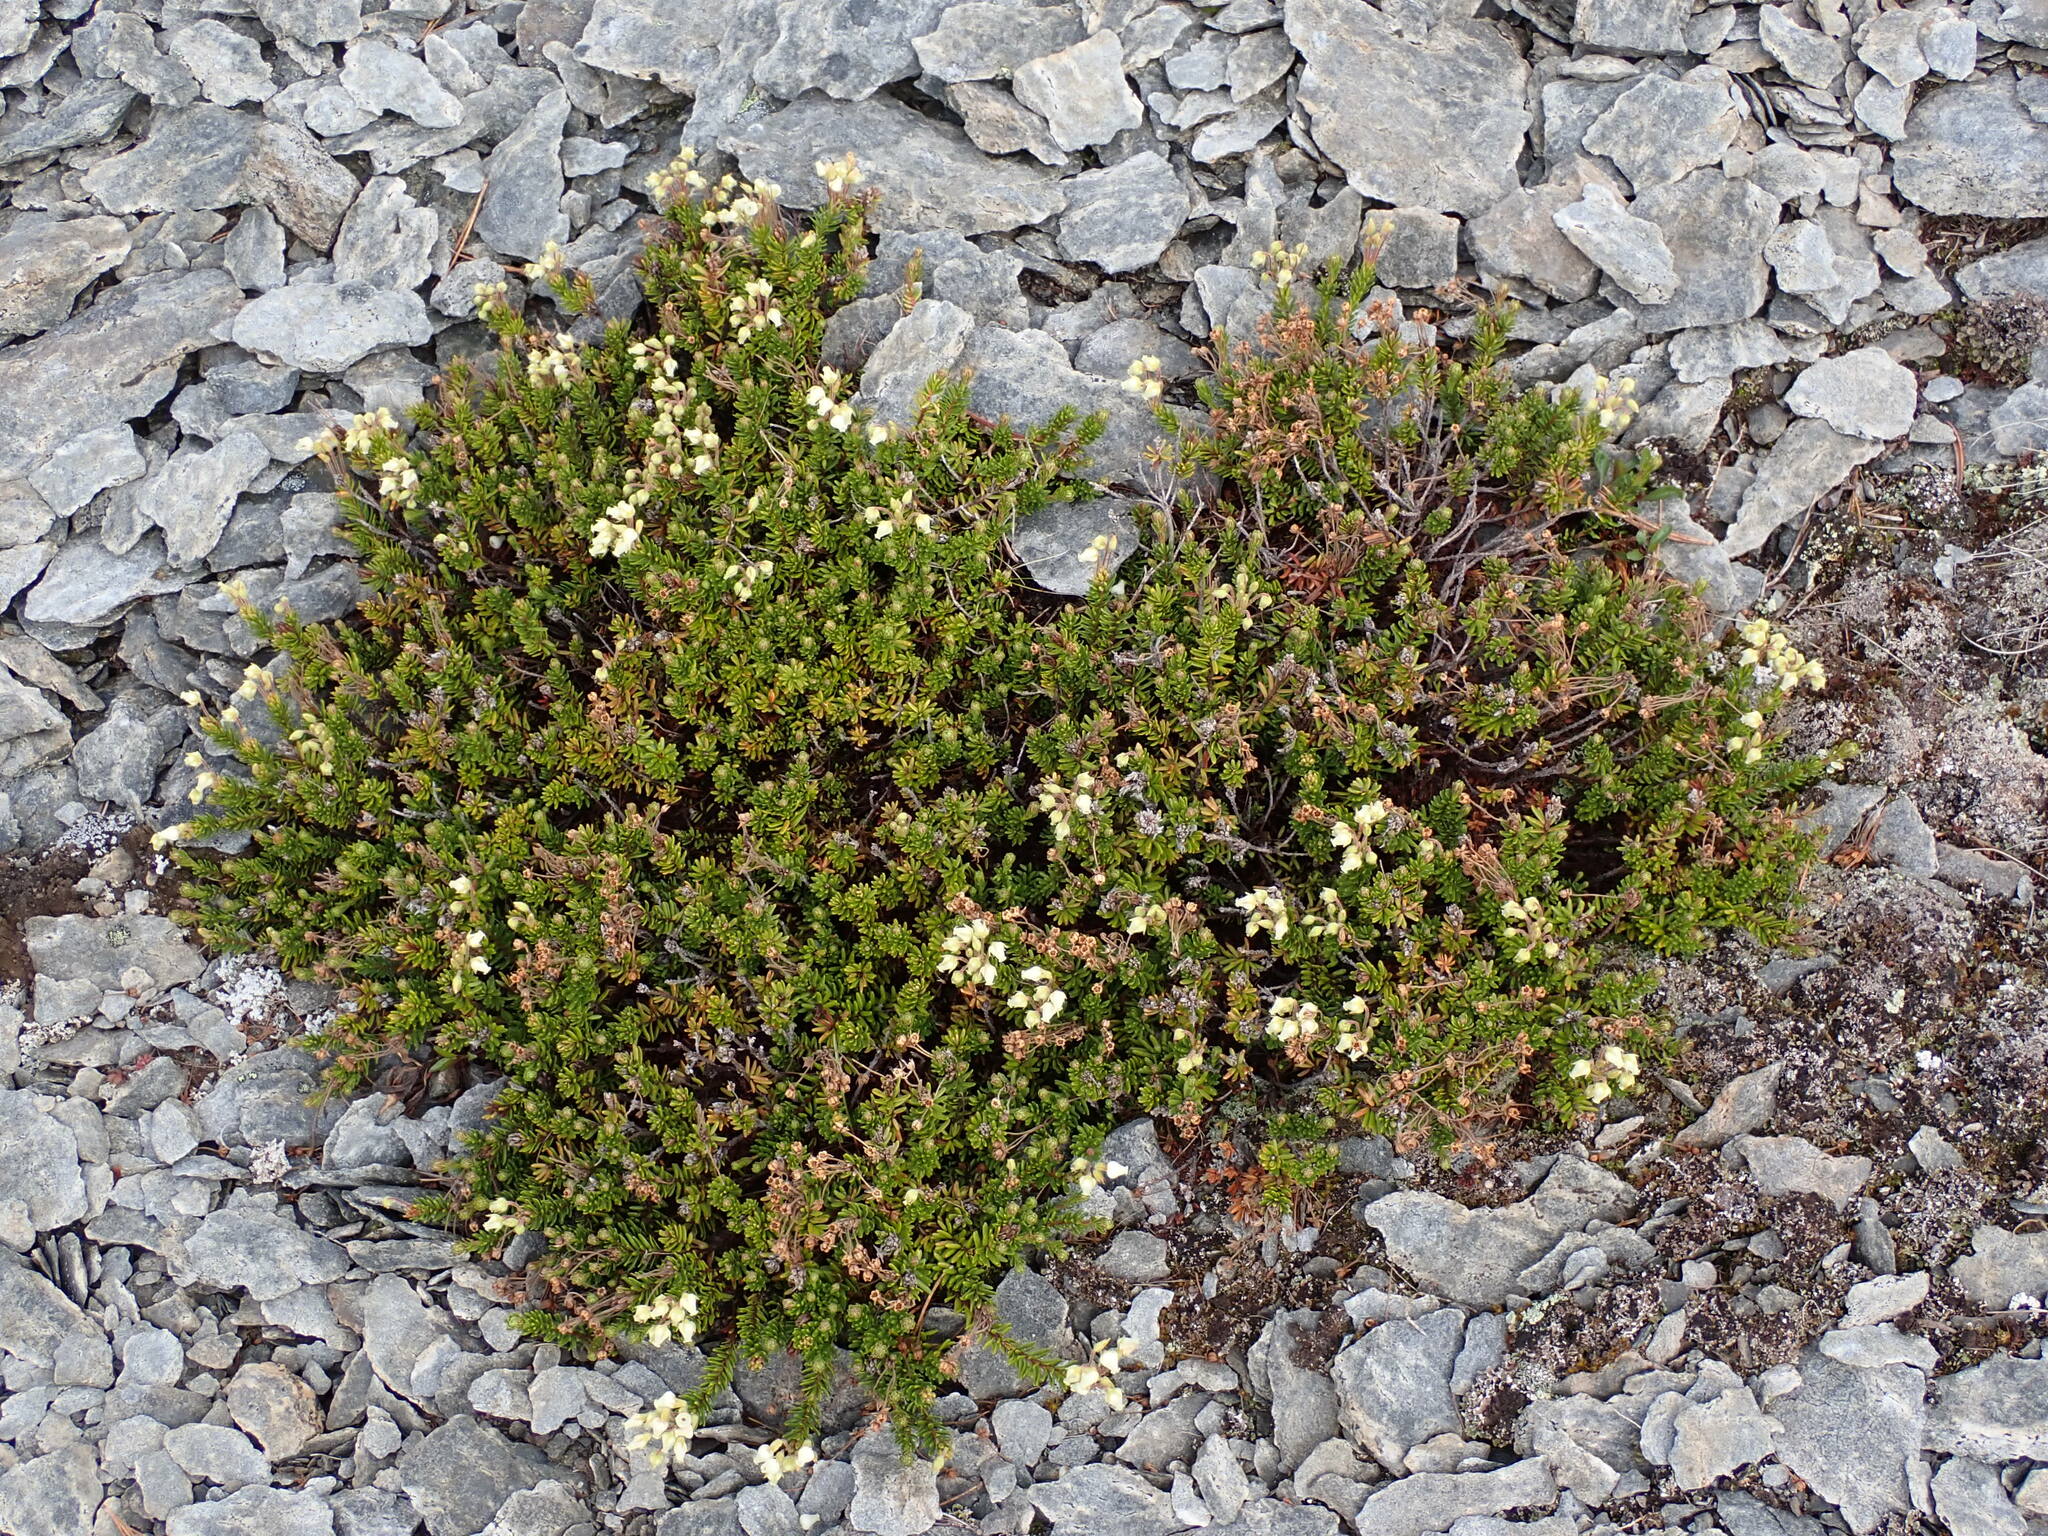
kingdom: Plantae
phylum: Tracheophyta
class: Magnoliopsida
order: Ericales
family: Ericaceae
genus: Phyllodoce
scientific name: Phyllodoce glanduliflora
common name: Cream mountain heather
